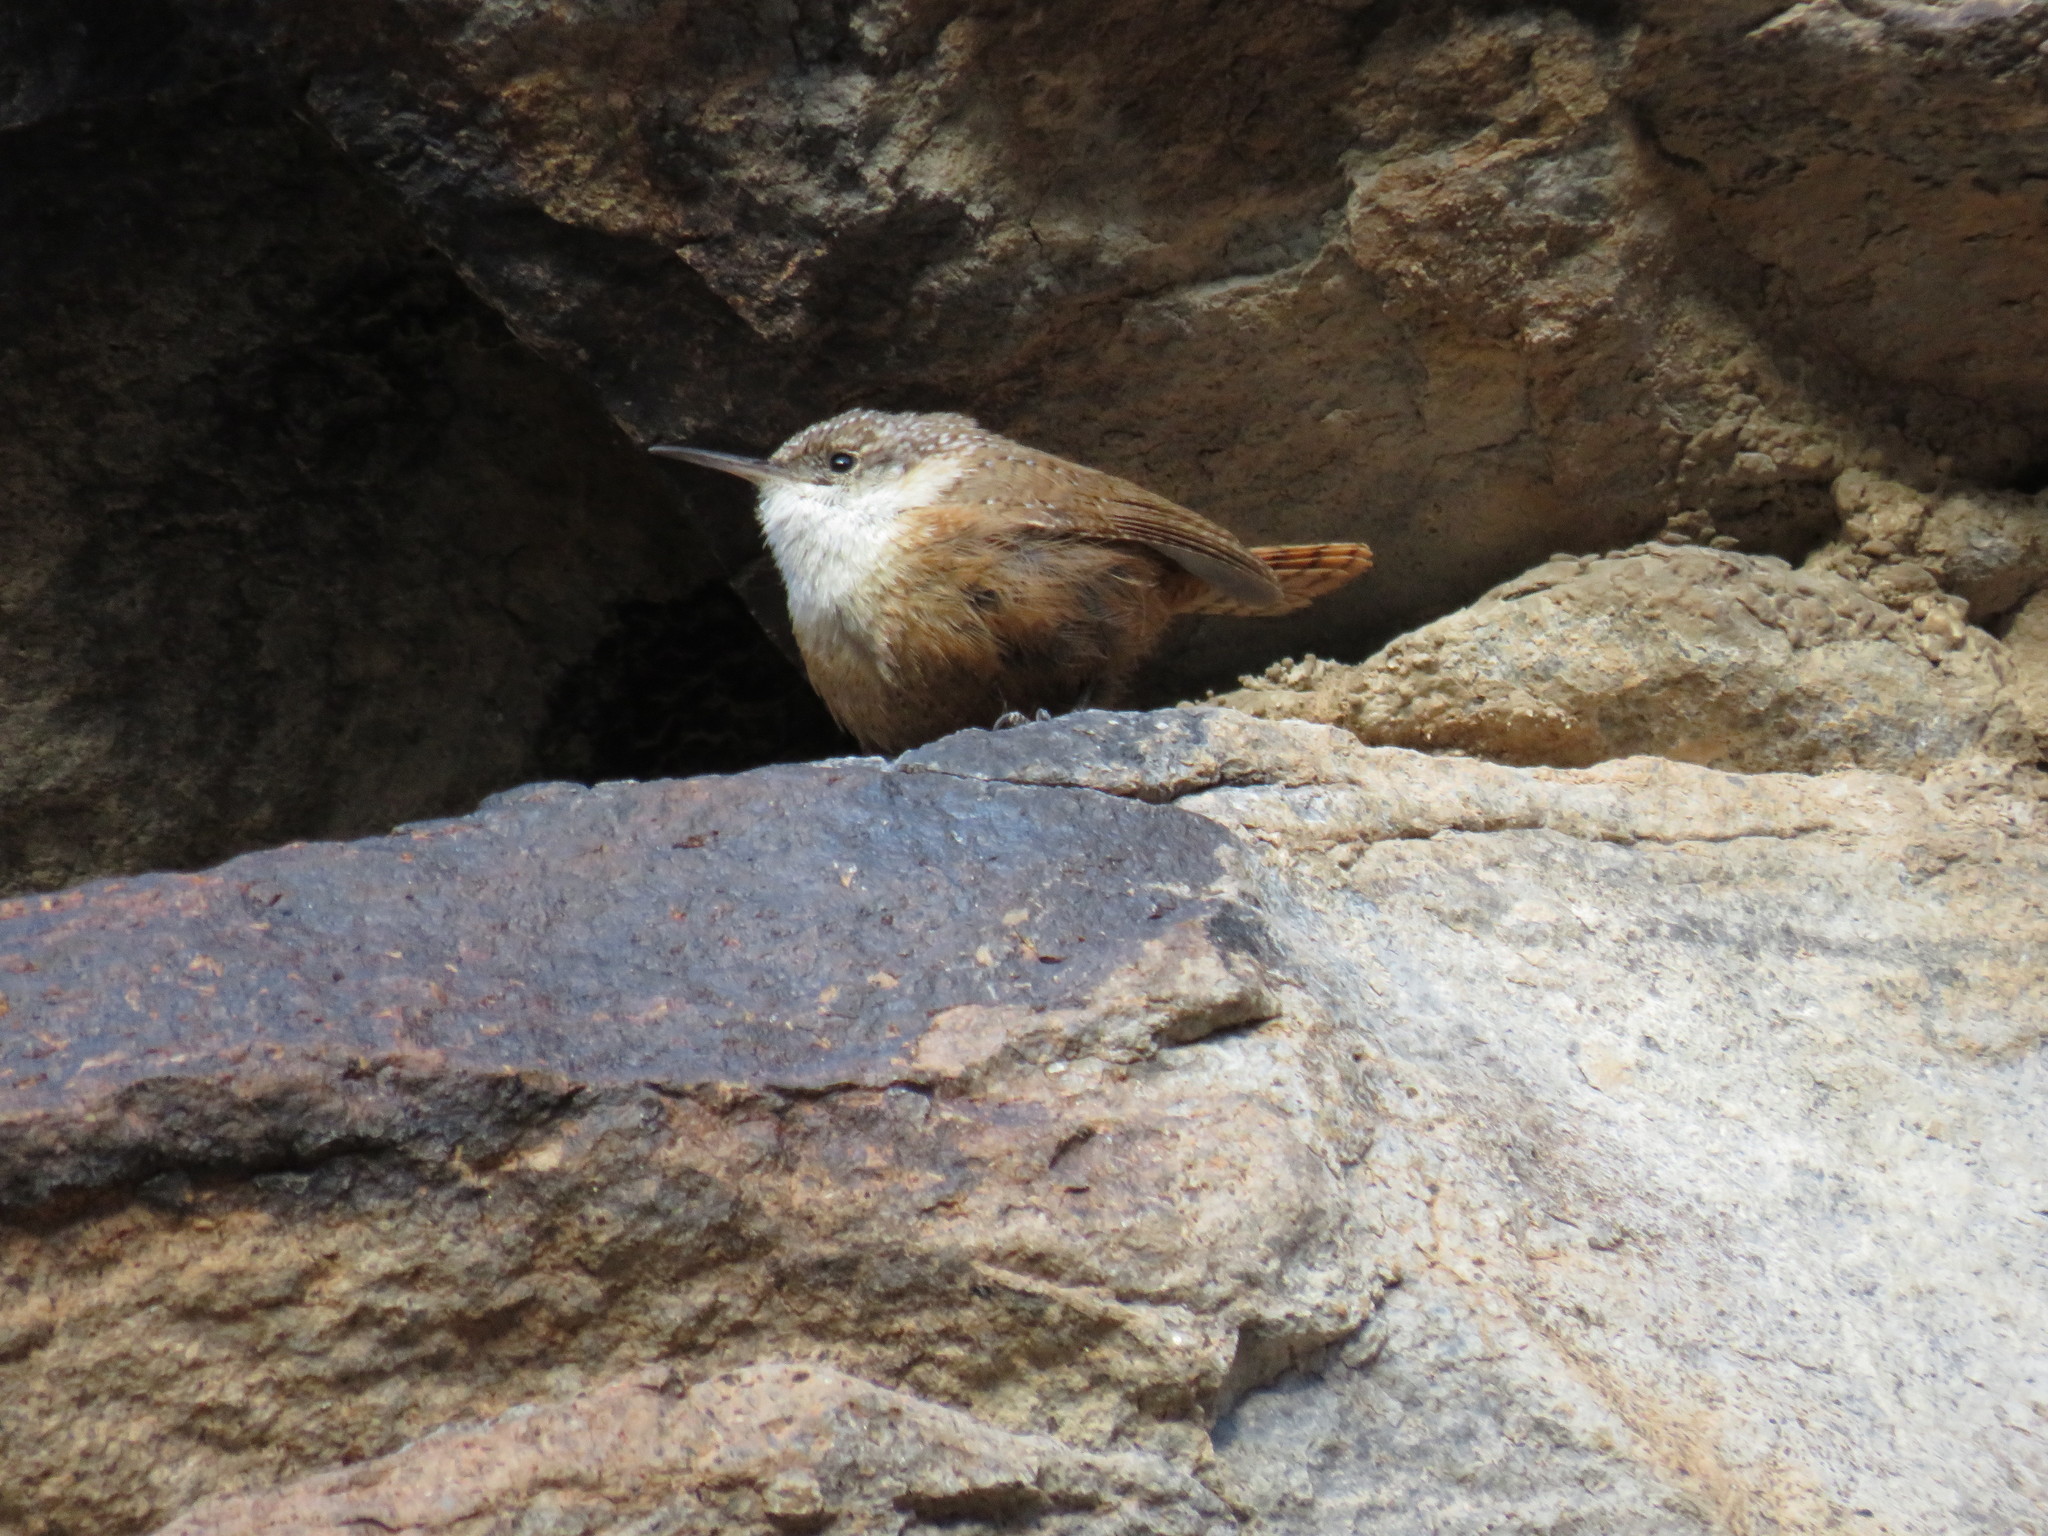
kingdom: Animalia
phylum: Chordata
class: Aves
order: Passeriformes
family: Troglodytidae
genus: Catherpes
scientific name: Catherpes mexicanus
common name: Canyon wren
